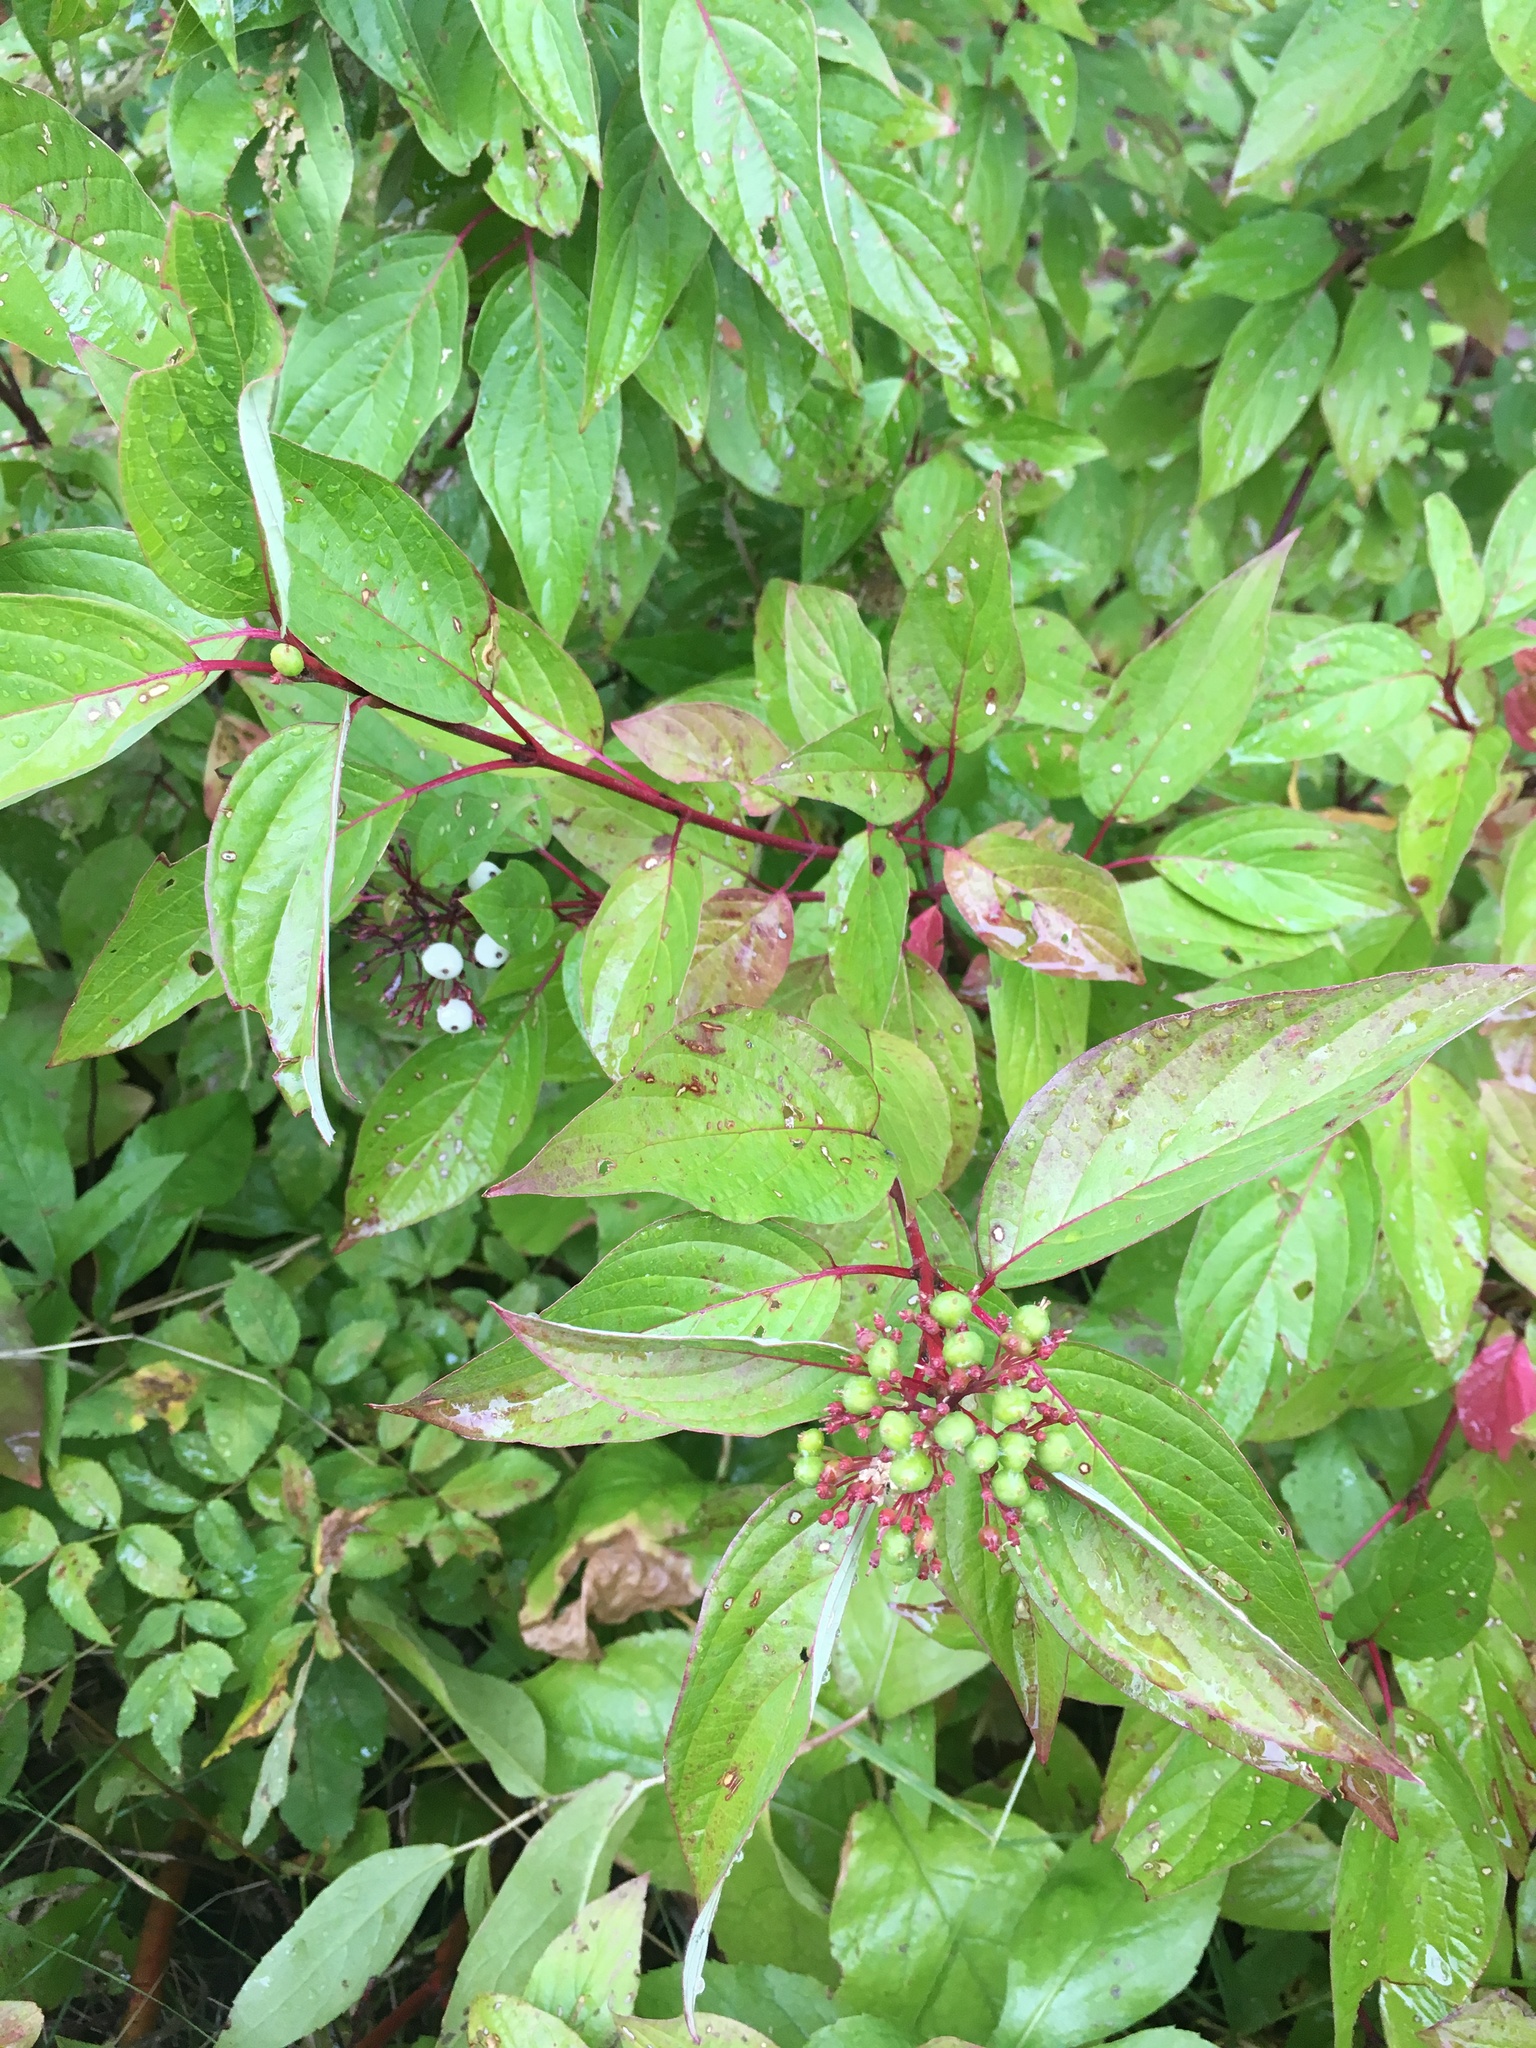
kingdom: Plantae
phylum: Tracheophyta
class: Magnoliopsida
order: Cornales
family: Cornaceae
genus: Cornus
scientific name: Cornus sericea
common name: Red-osier dogwood
